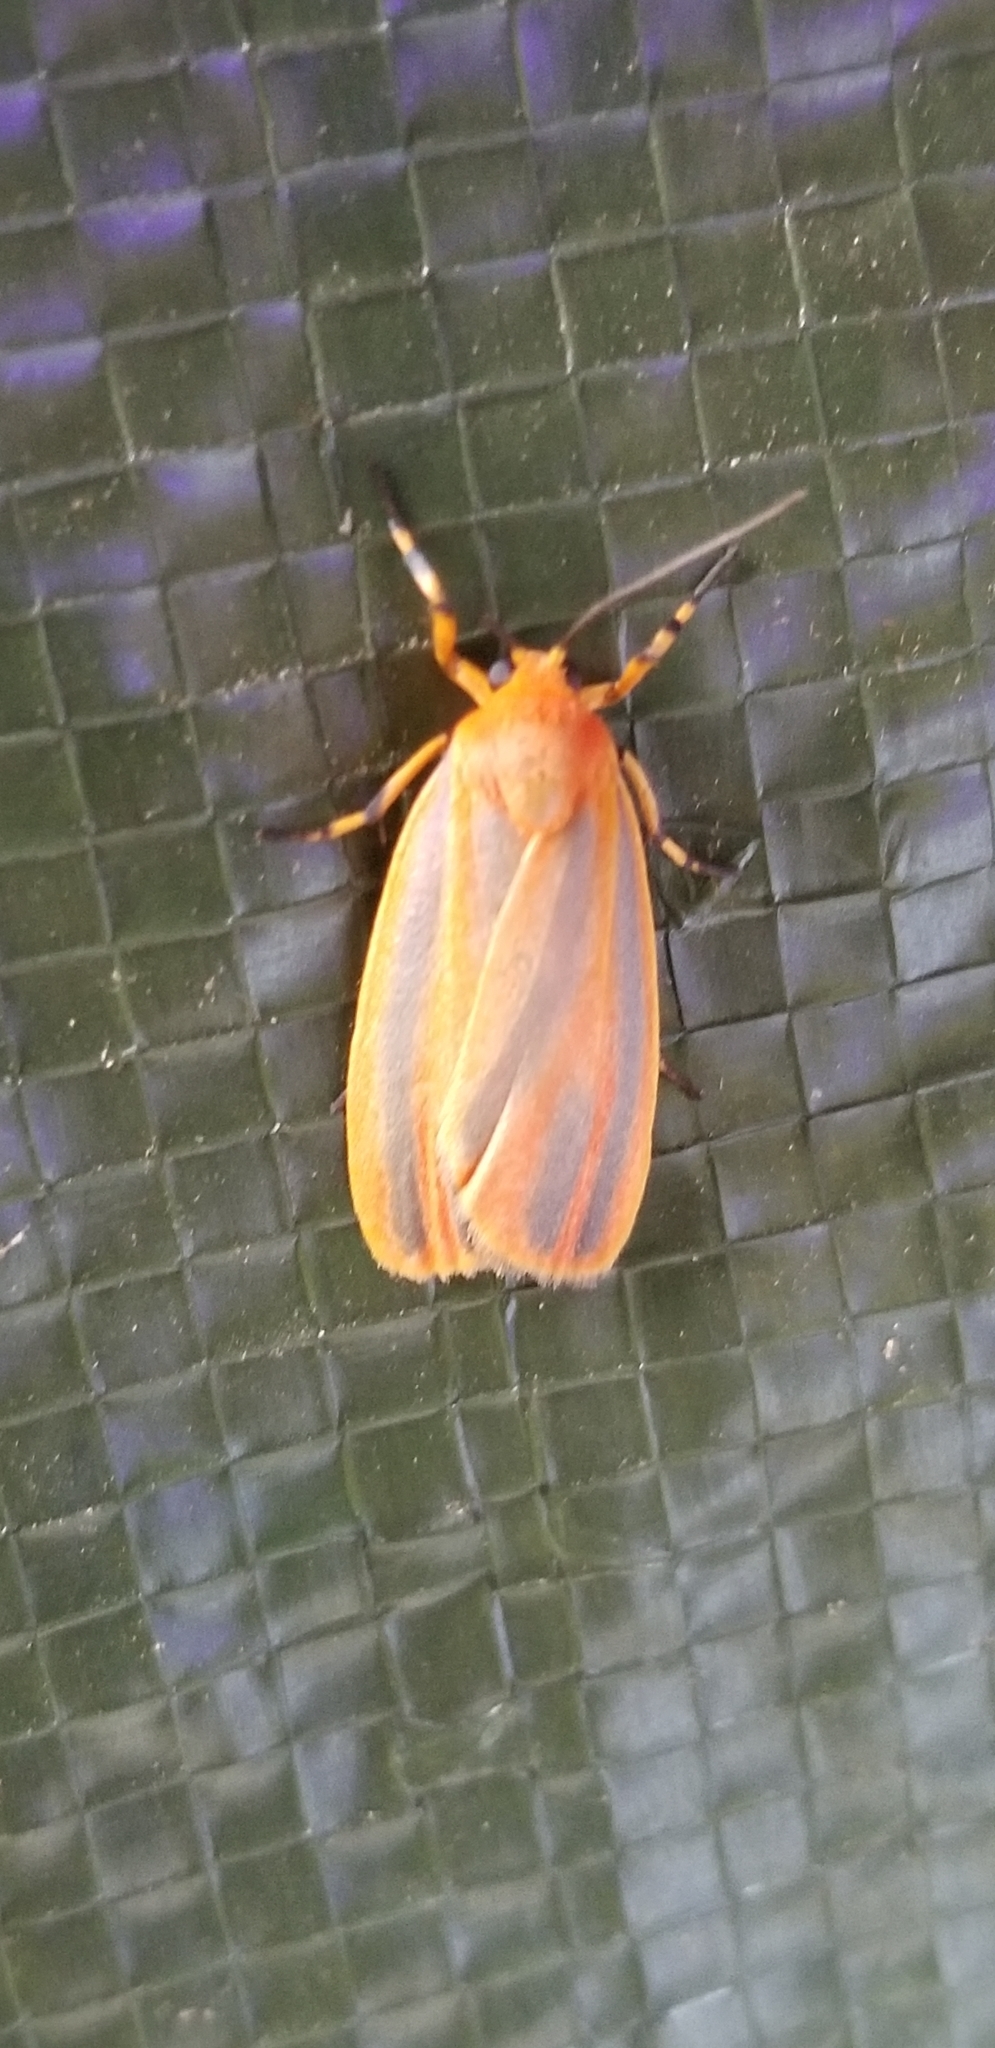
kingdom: Animalia
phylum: Arthropoda
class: Insecta
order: Lepidoptera
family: Erebidae
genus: Hypoprepia
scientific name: Hypoprepia fucosa
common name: Painted lichen moth
